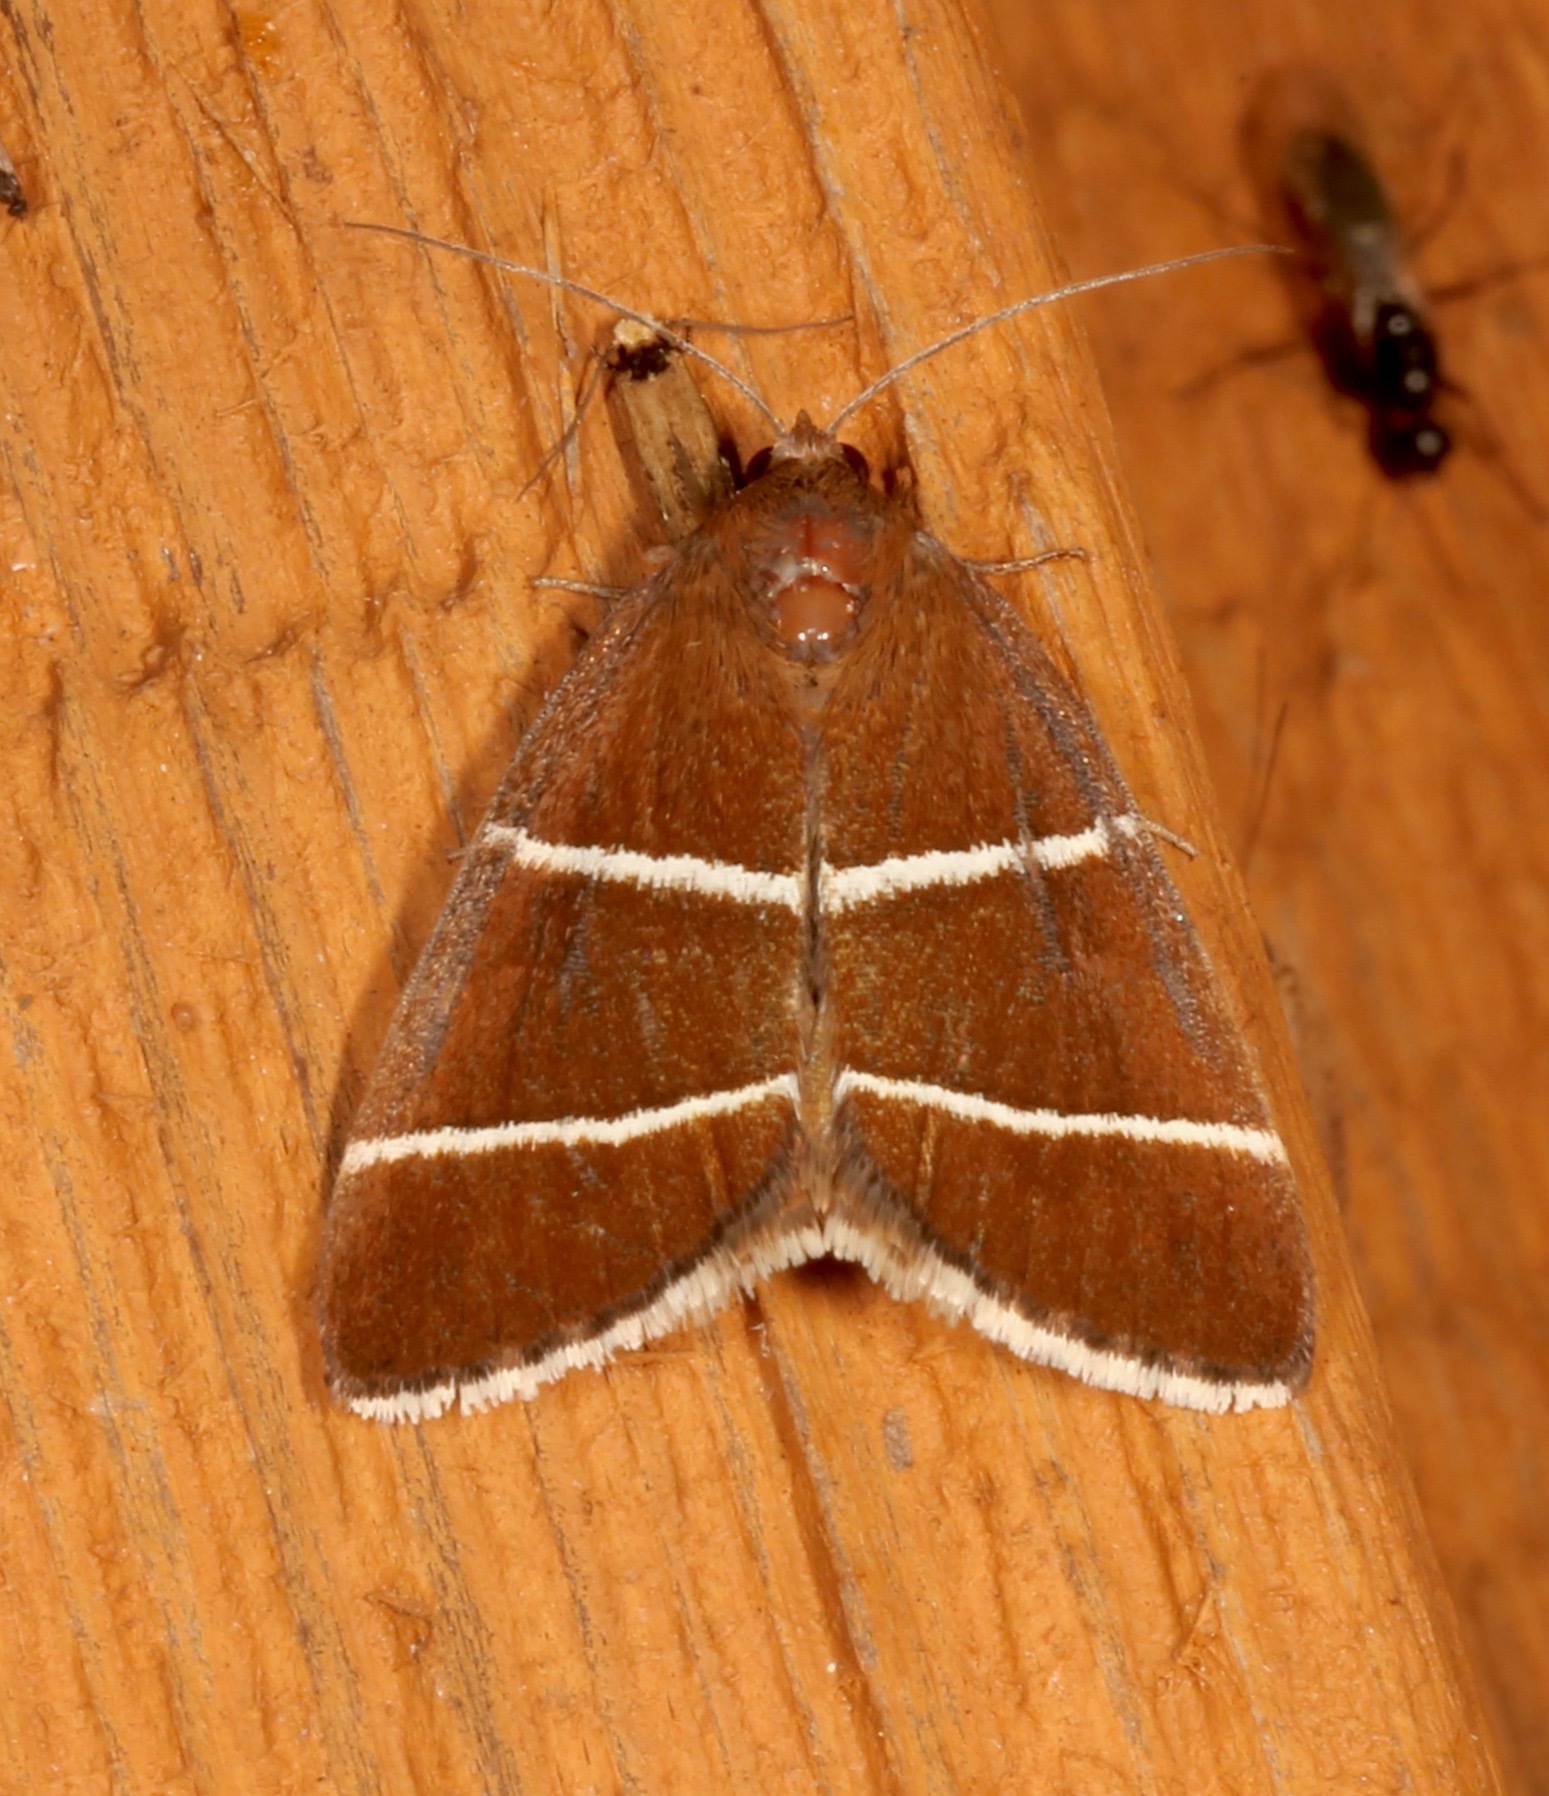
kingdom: Animalia
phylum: Arthropoda
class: Insecta
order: Lepidoptera
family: Erebidae
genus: Argyrostrotis
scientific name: Argyrostrotis quadrifilaris
